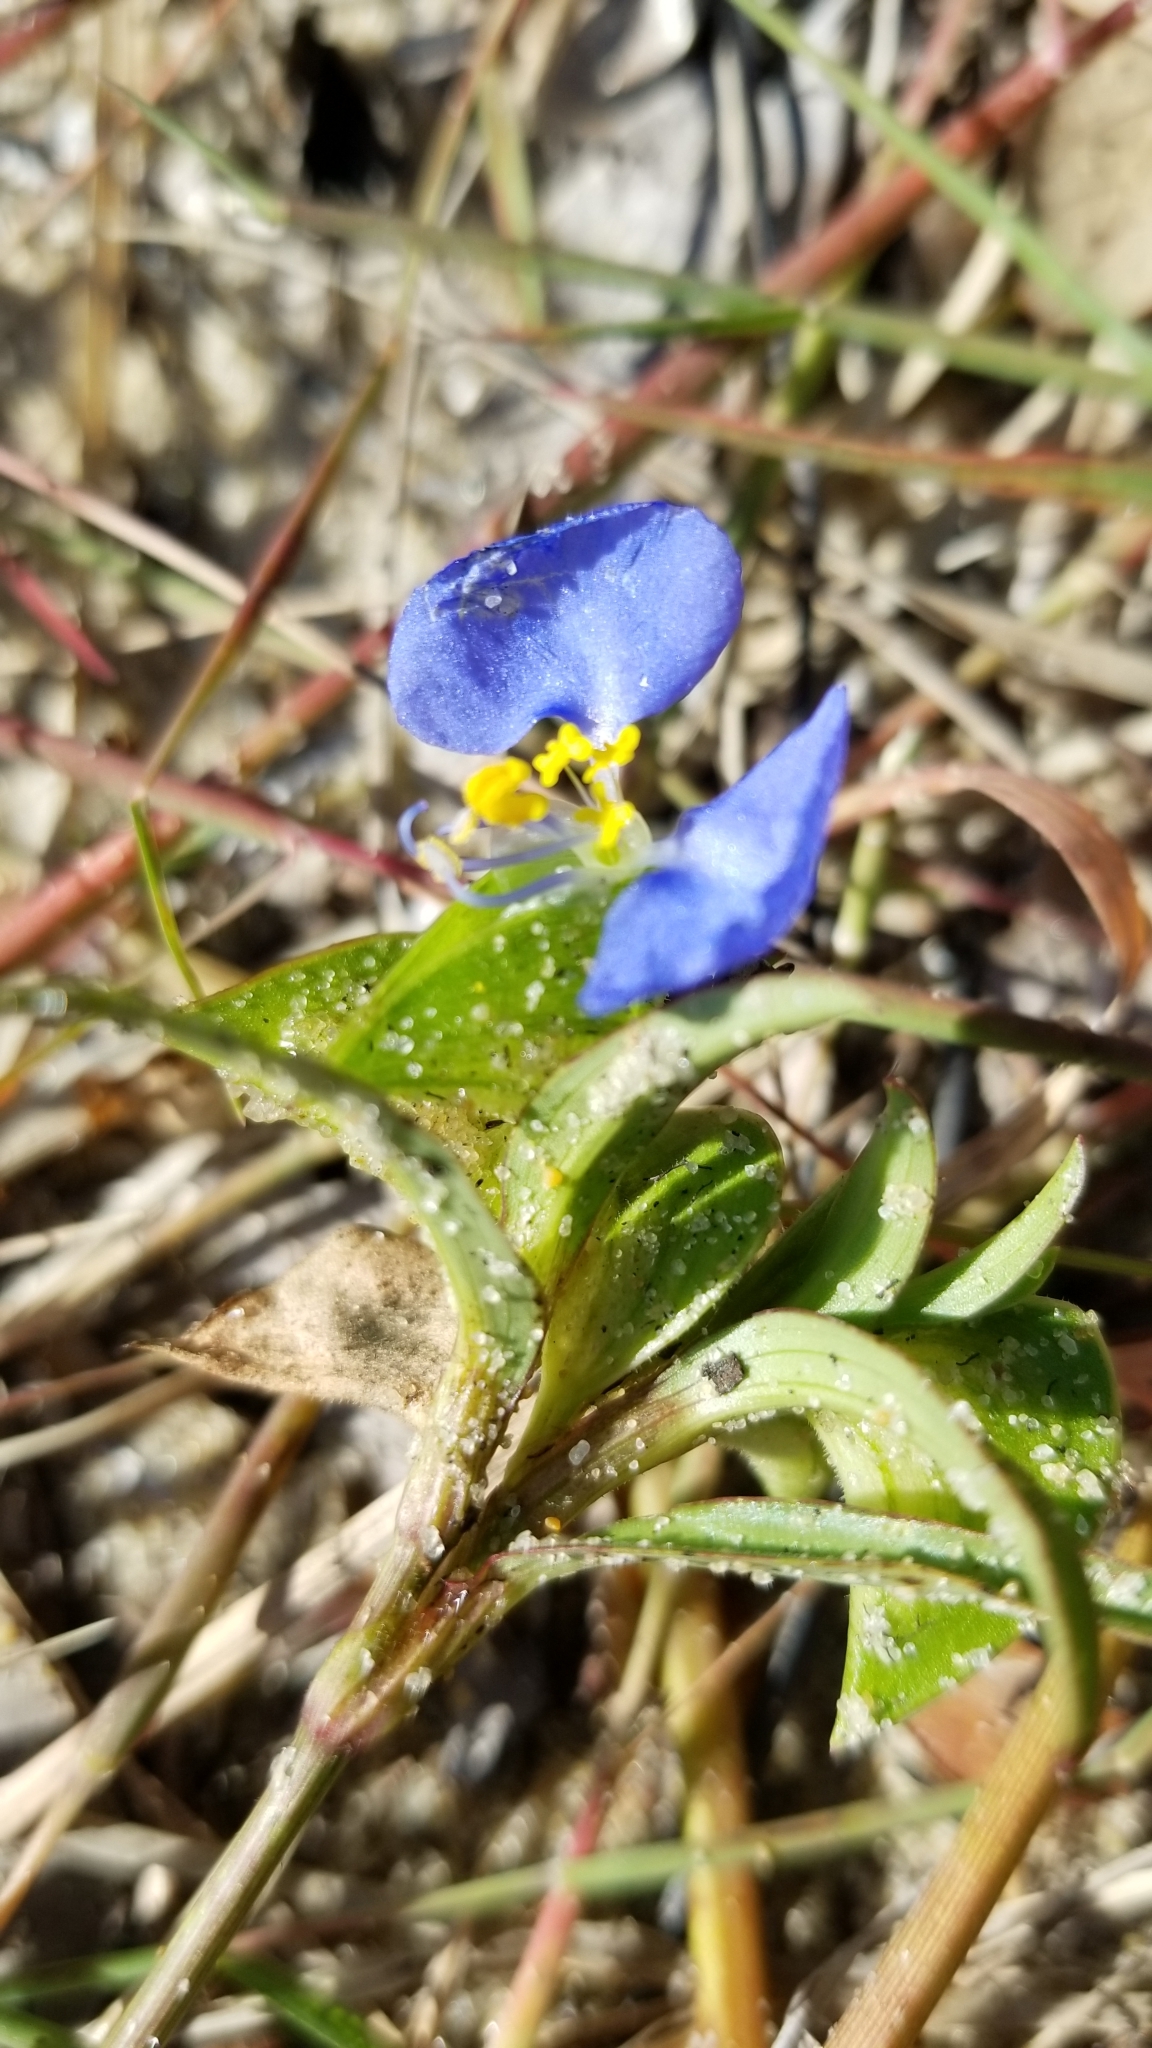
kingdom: Plantae
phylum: Tracheophyta
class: Liliopsida
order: Commelinales
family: Commelinaceae
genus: Commelina
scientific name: Commelina erecta
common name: Blousel blommetjie
